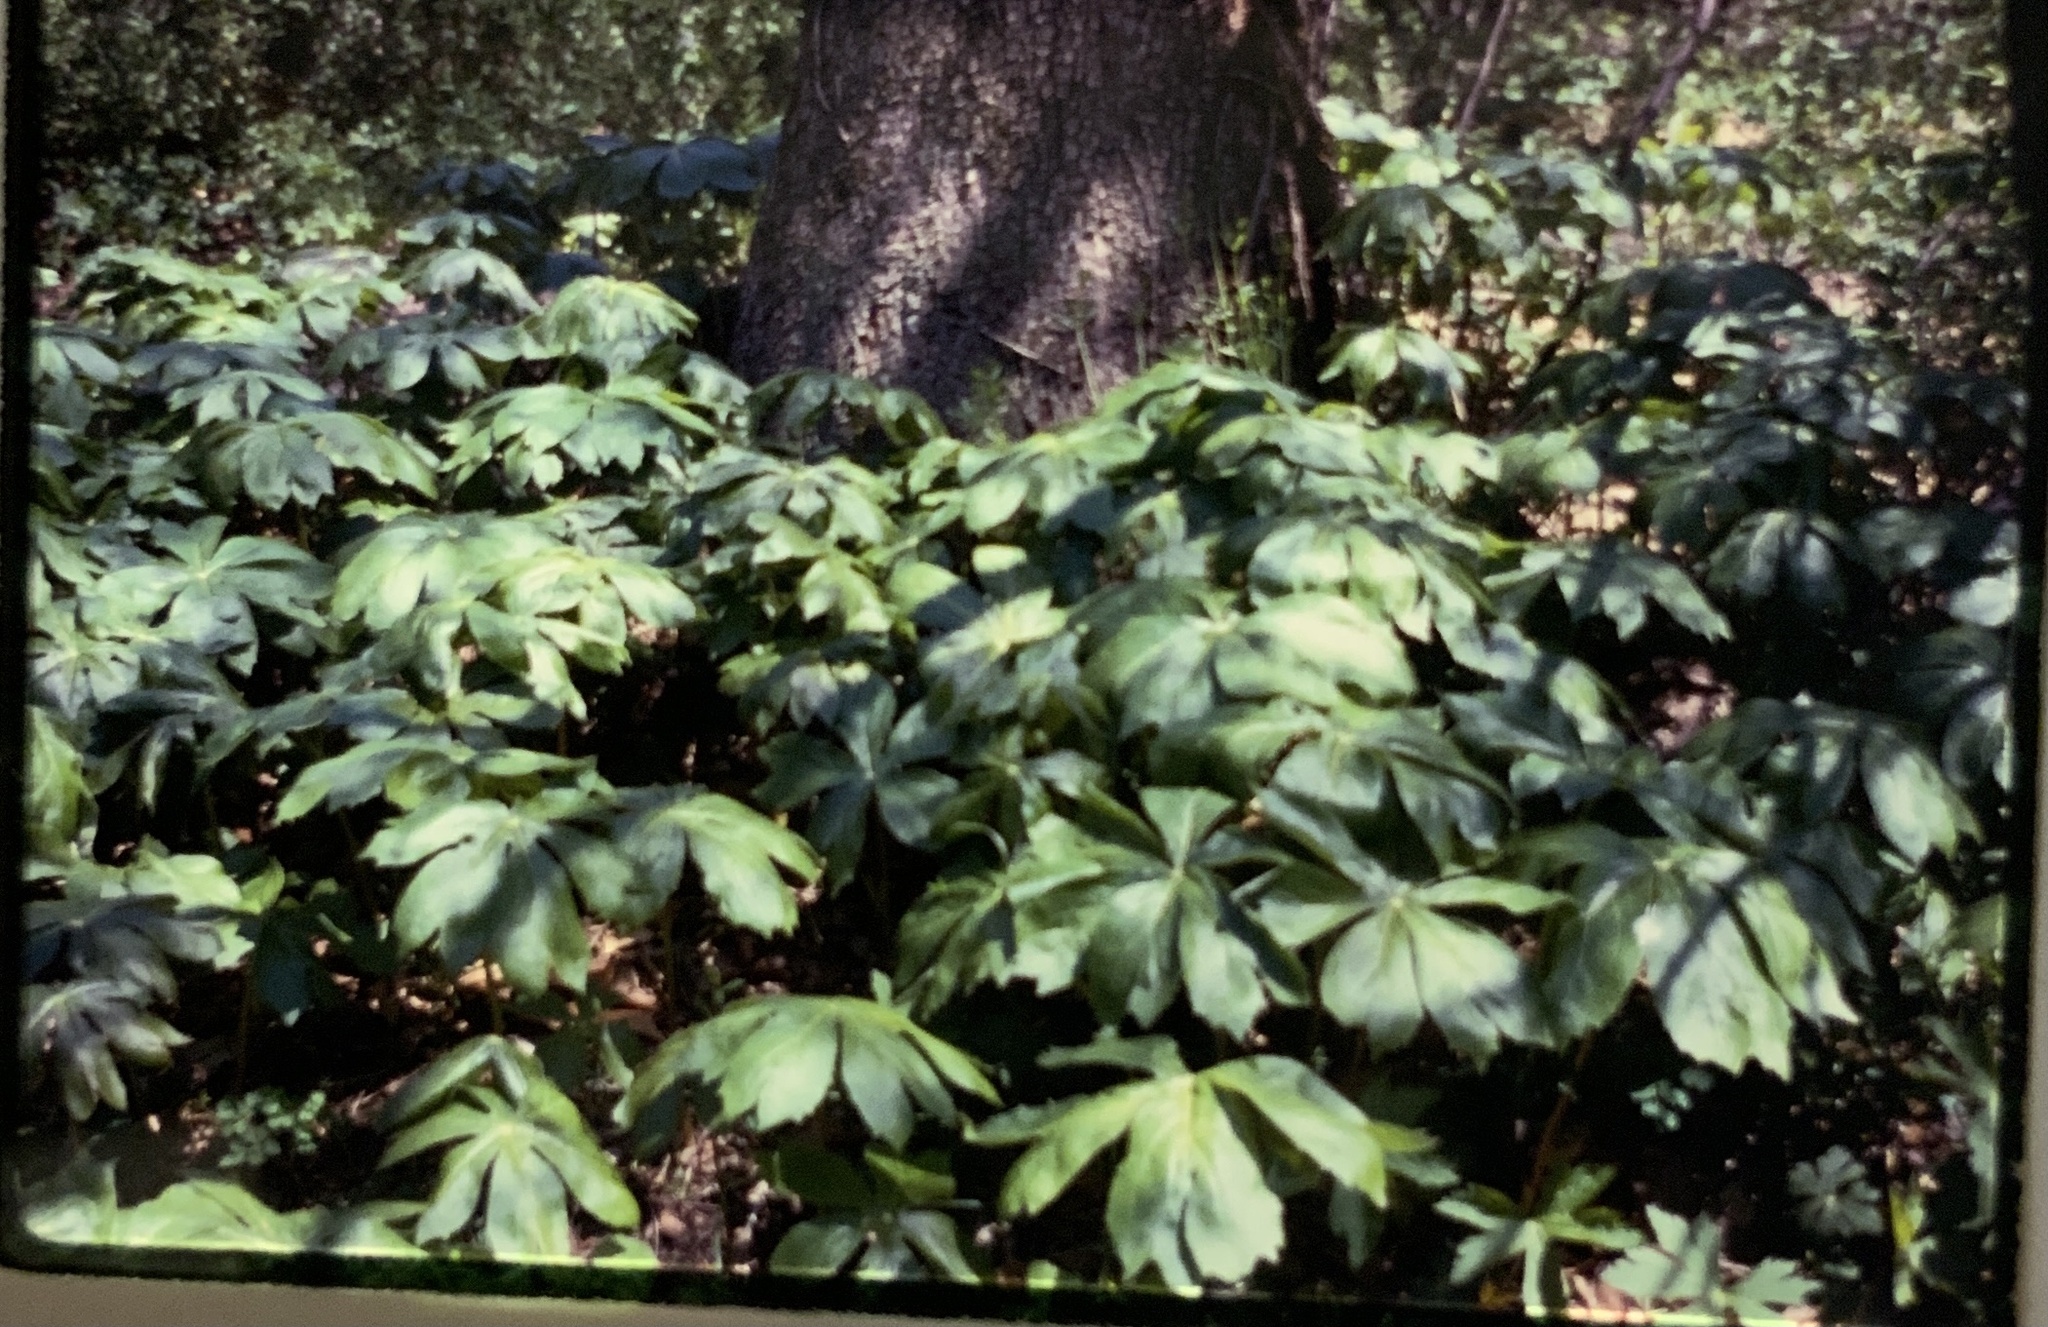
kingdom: Plantae
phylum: Tracheophyta
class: Magnoliopsida
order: Ranunculales
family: Berberidaceae
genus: Podophyllum
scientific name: Podophyllum peltatum
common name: Wild mandrake
